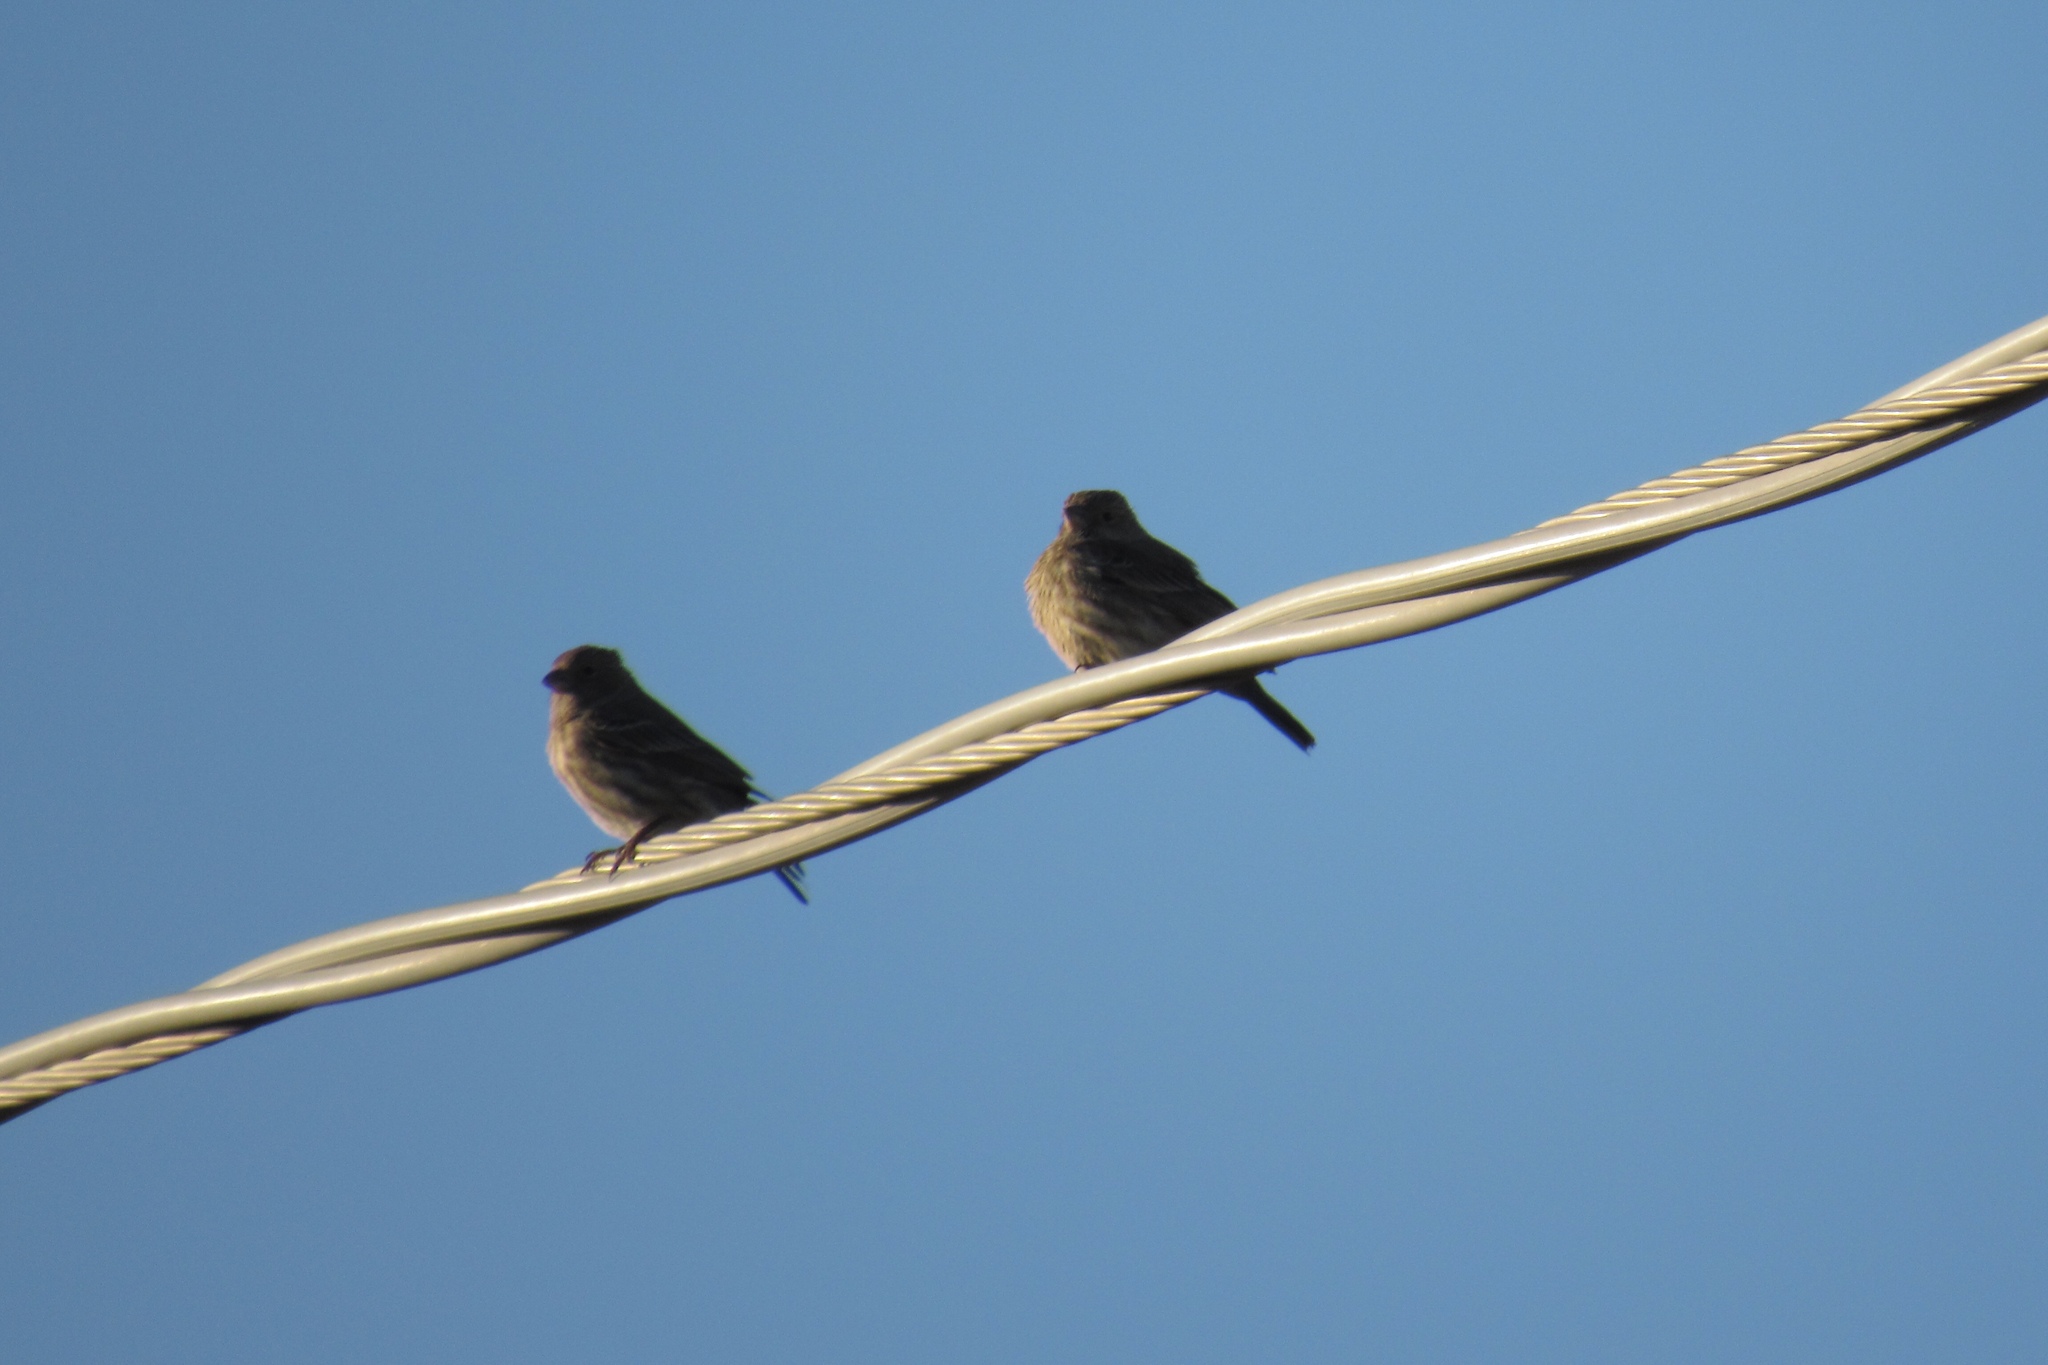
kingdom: Animalia
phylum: Chordata
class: Aves
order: Passeriformes
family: Fringillidae
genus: Haemorhous
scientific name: Haemorhous mexicanus
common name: House finch
